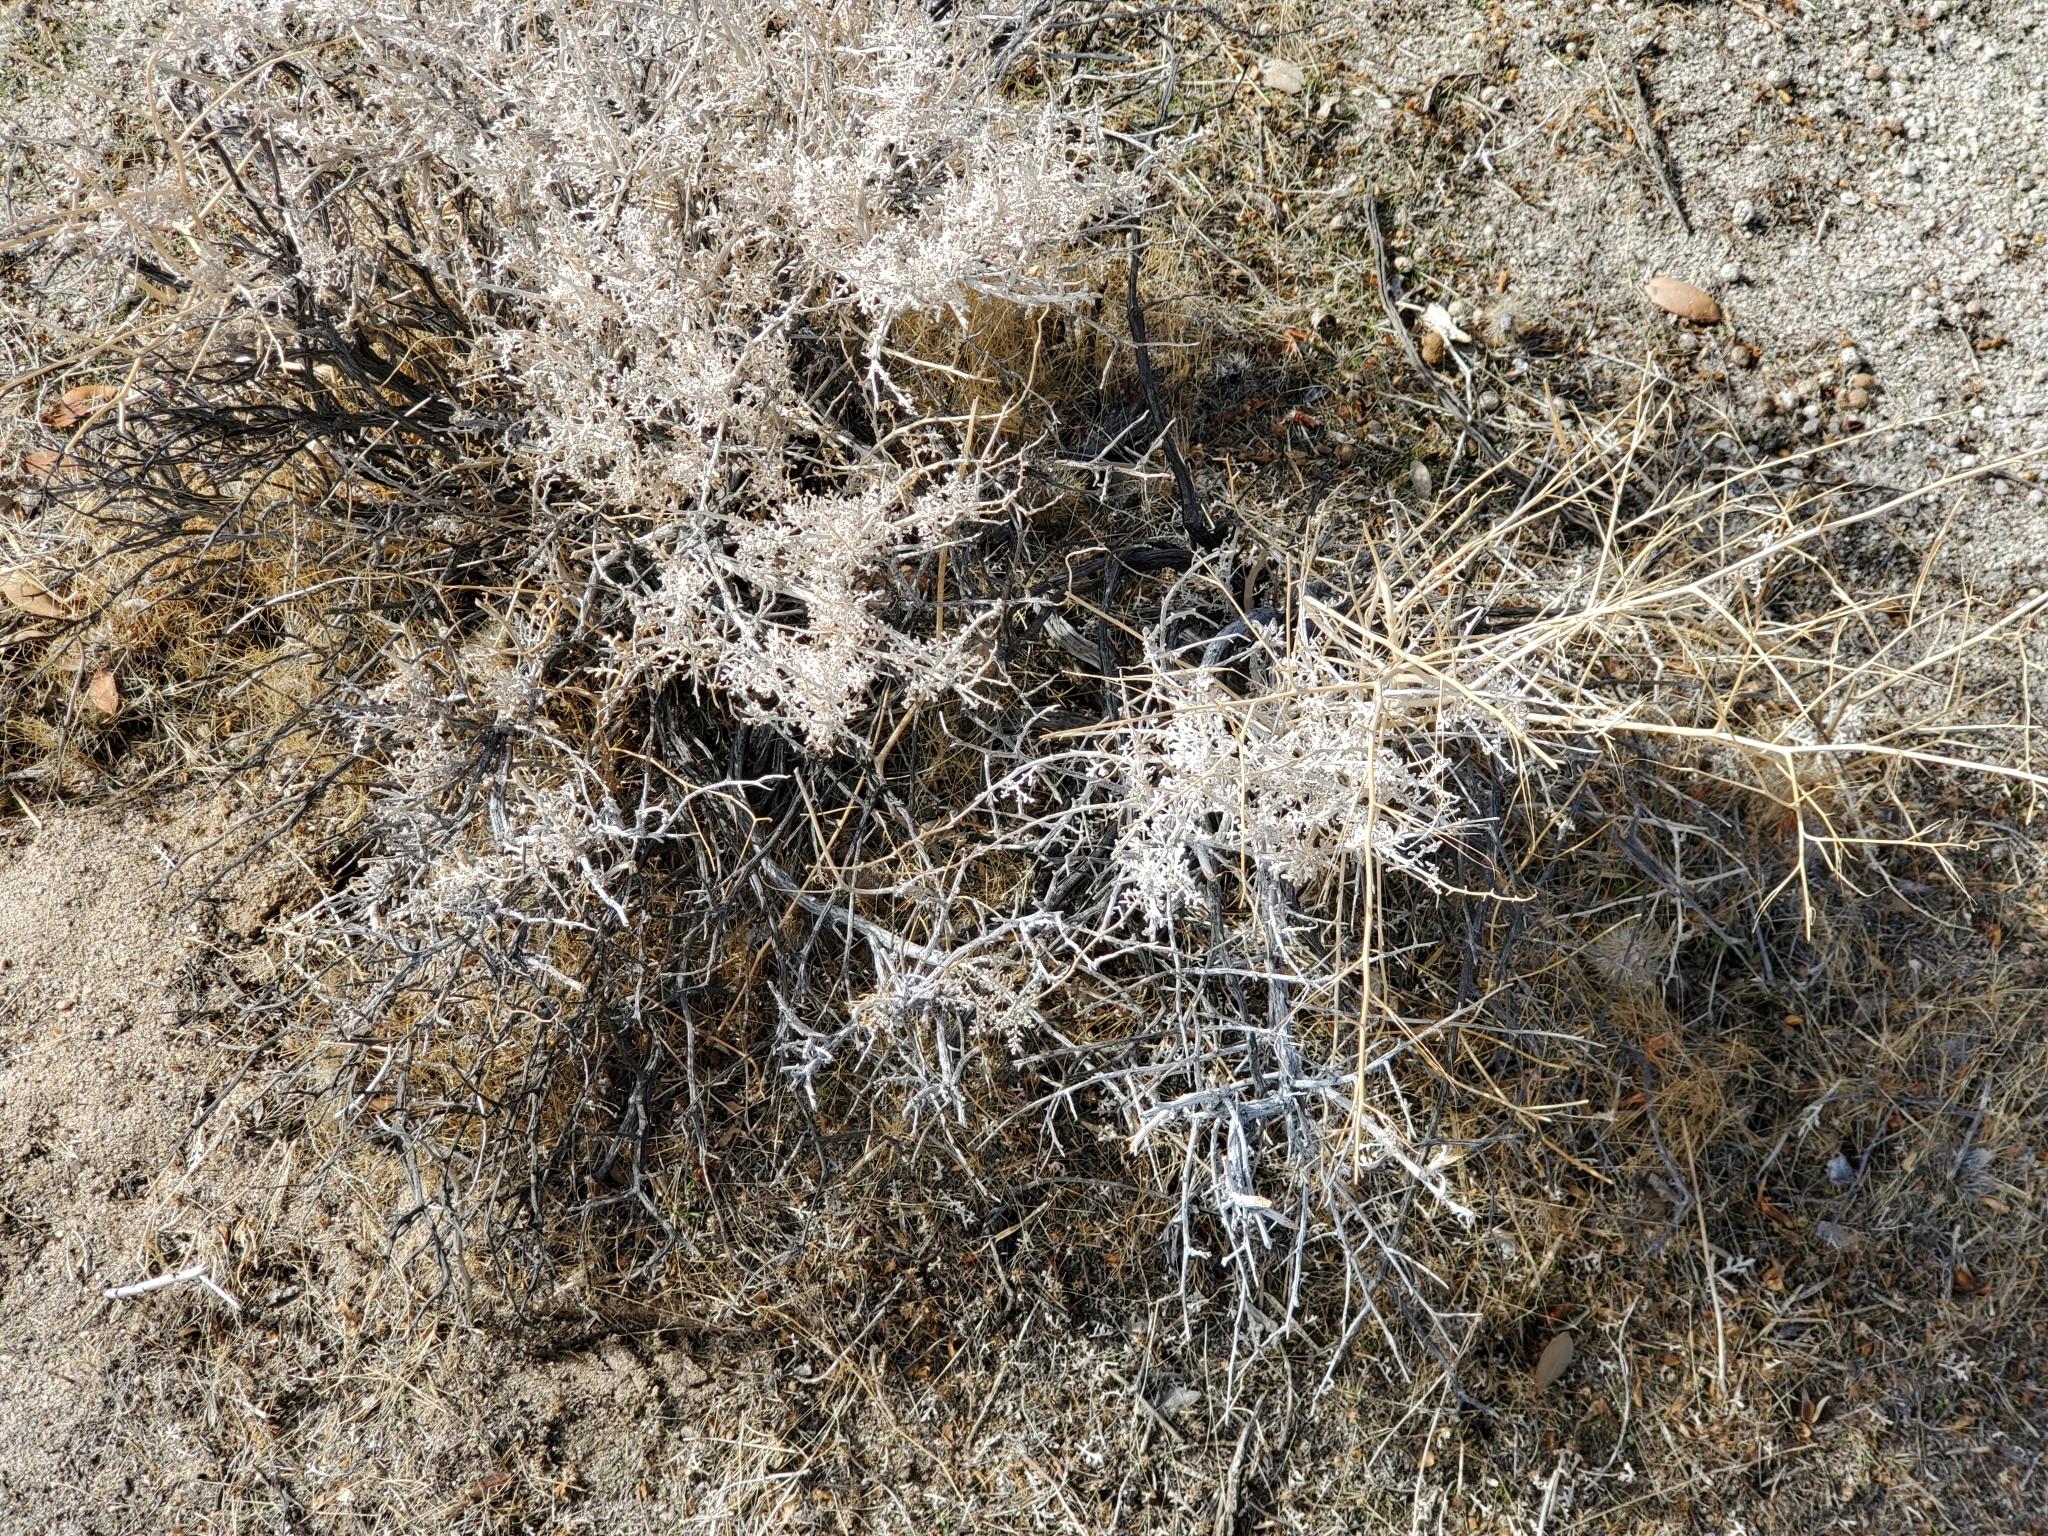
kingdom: Plantae
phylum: Tracheophyta
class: Magnoliopsida
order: Asterales
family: Asteraceae
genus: Ambrosia
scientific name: Ambrosia dumosa
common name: Bur-sage
